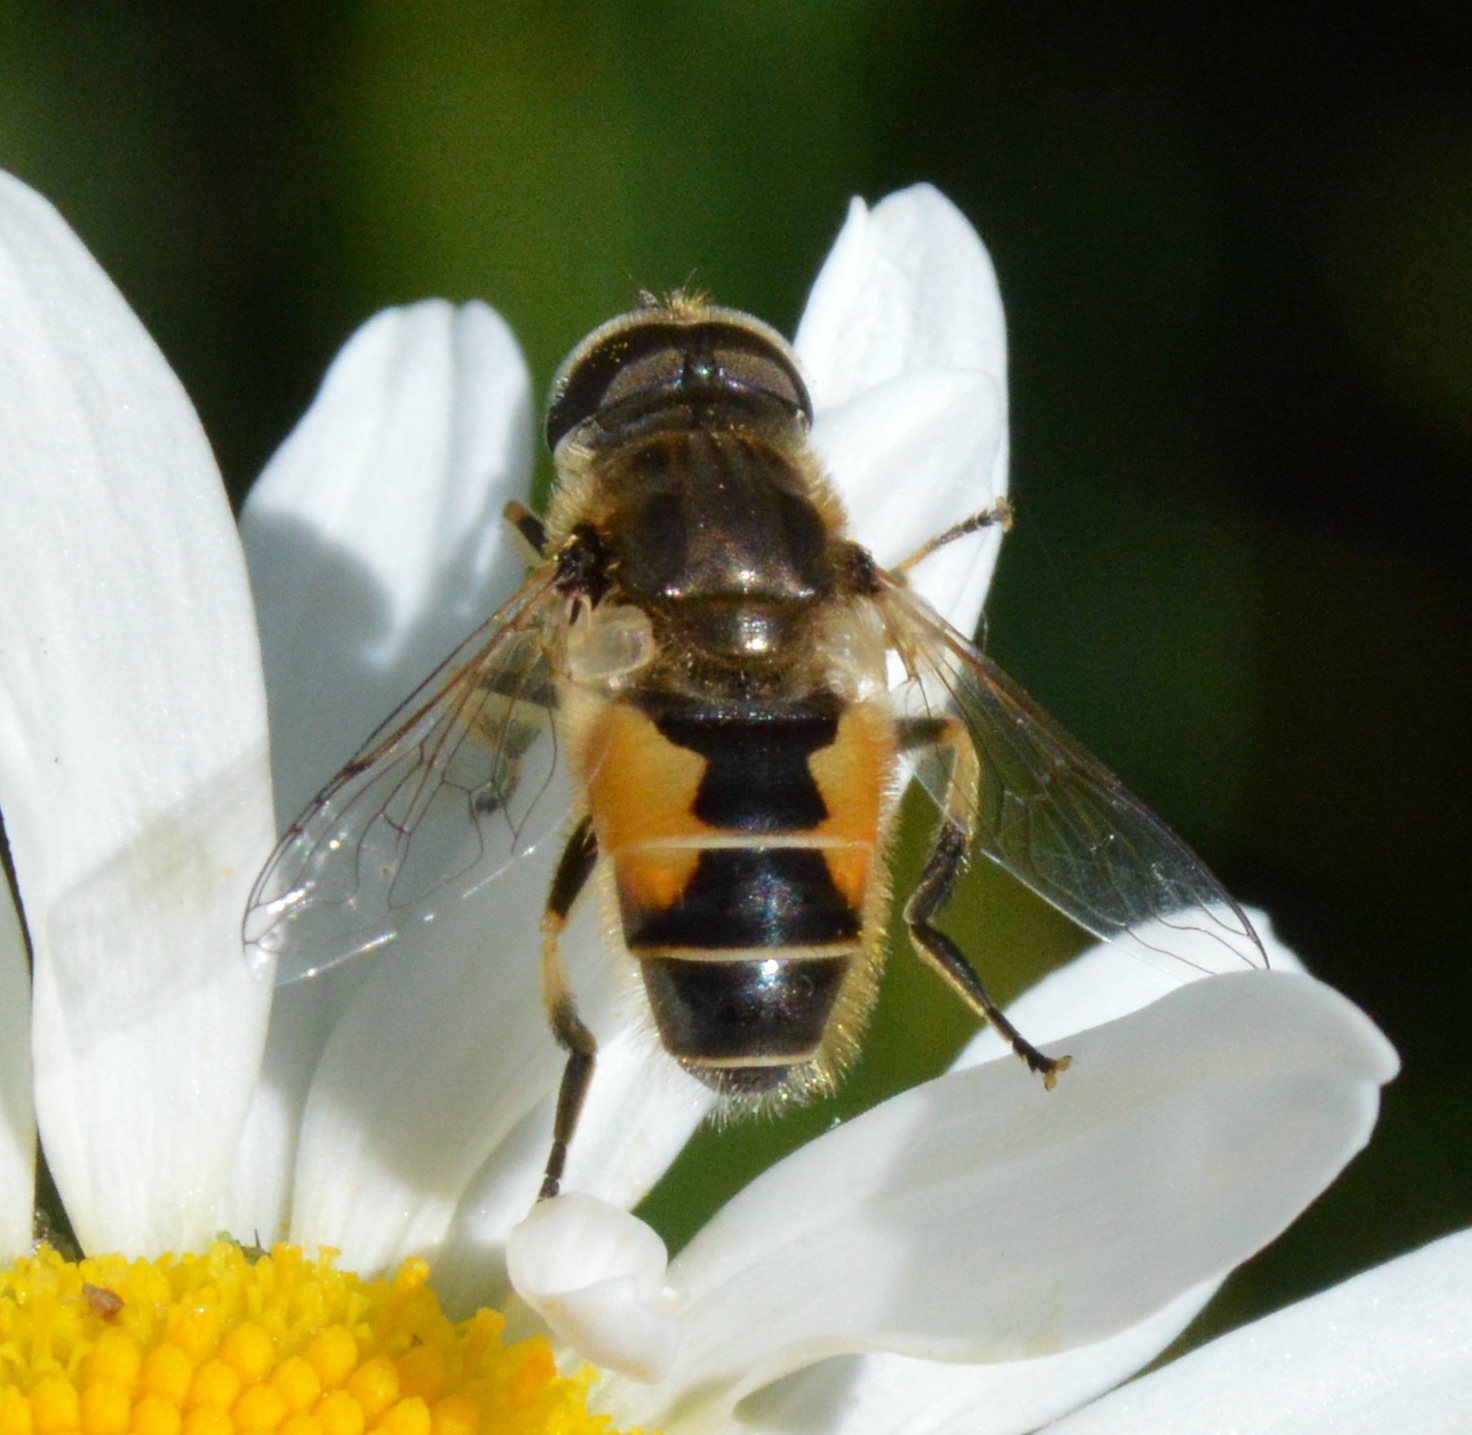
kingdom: Animalia
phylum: Arthropoda
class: Insecta
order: Diptera
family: Syrphidae
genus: Eristalis
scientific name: Eristalis arbustorum
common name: Hover fly
